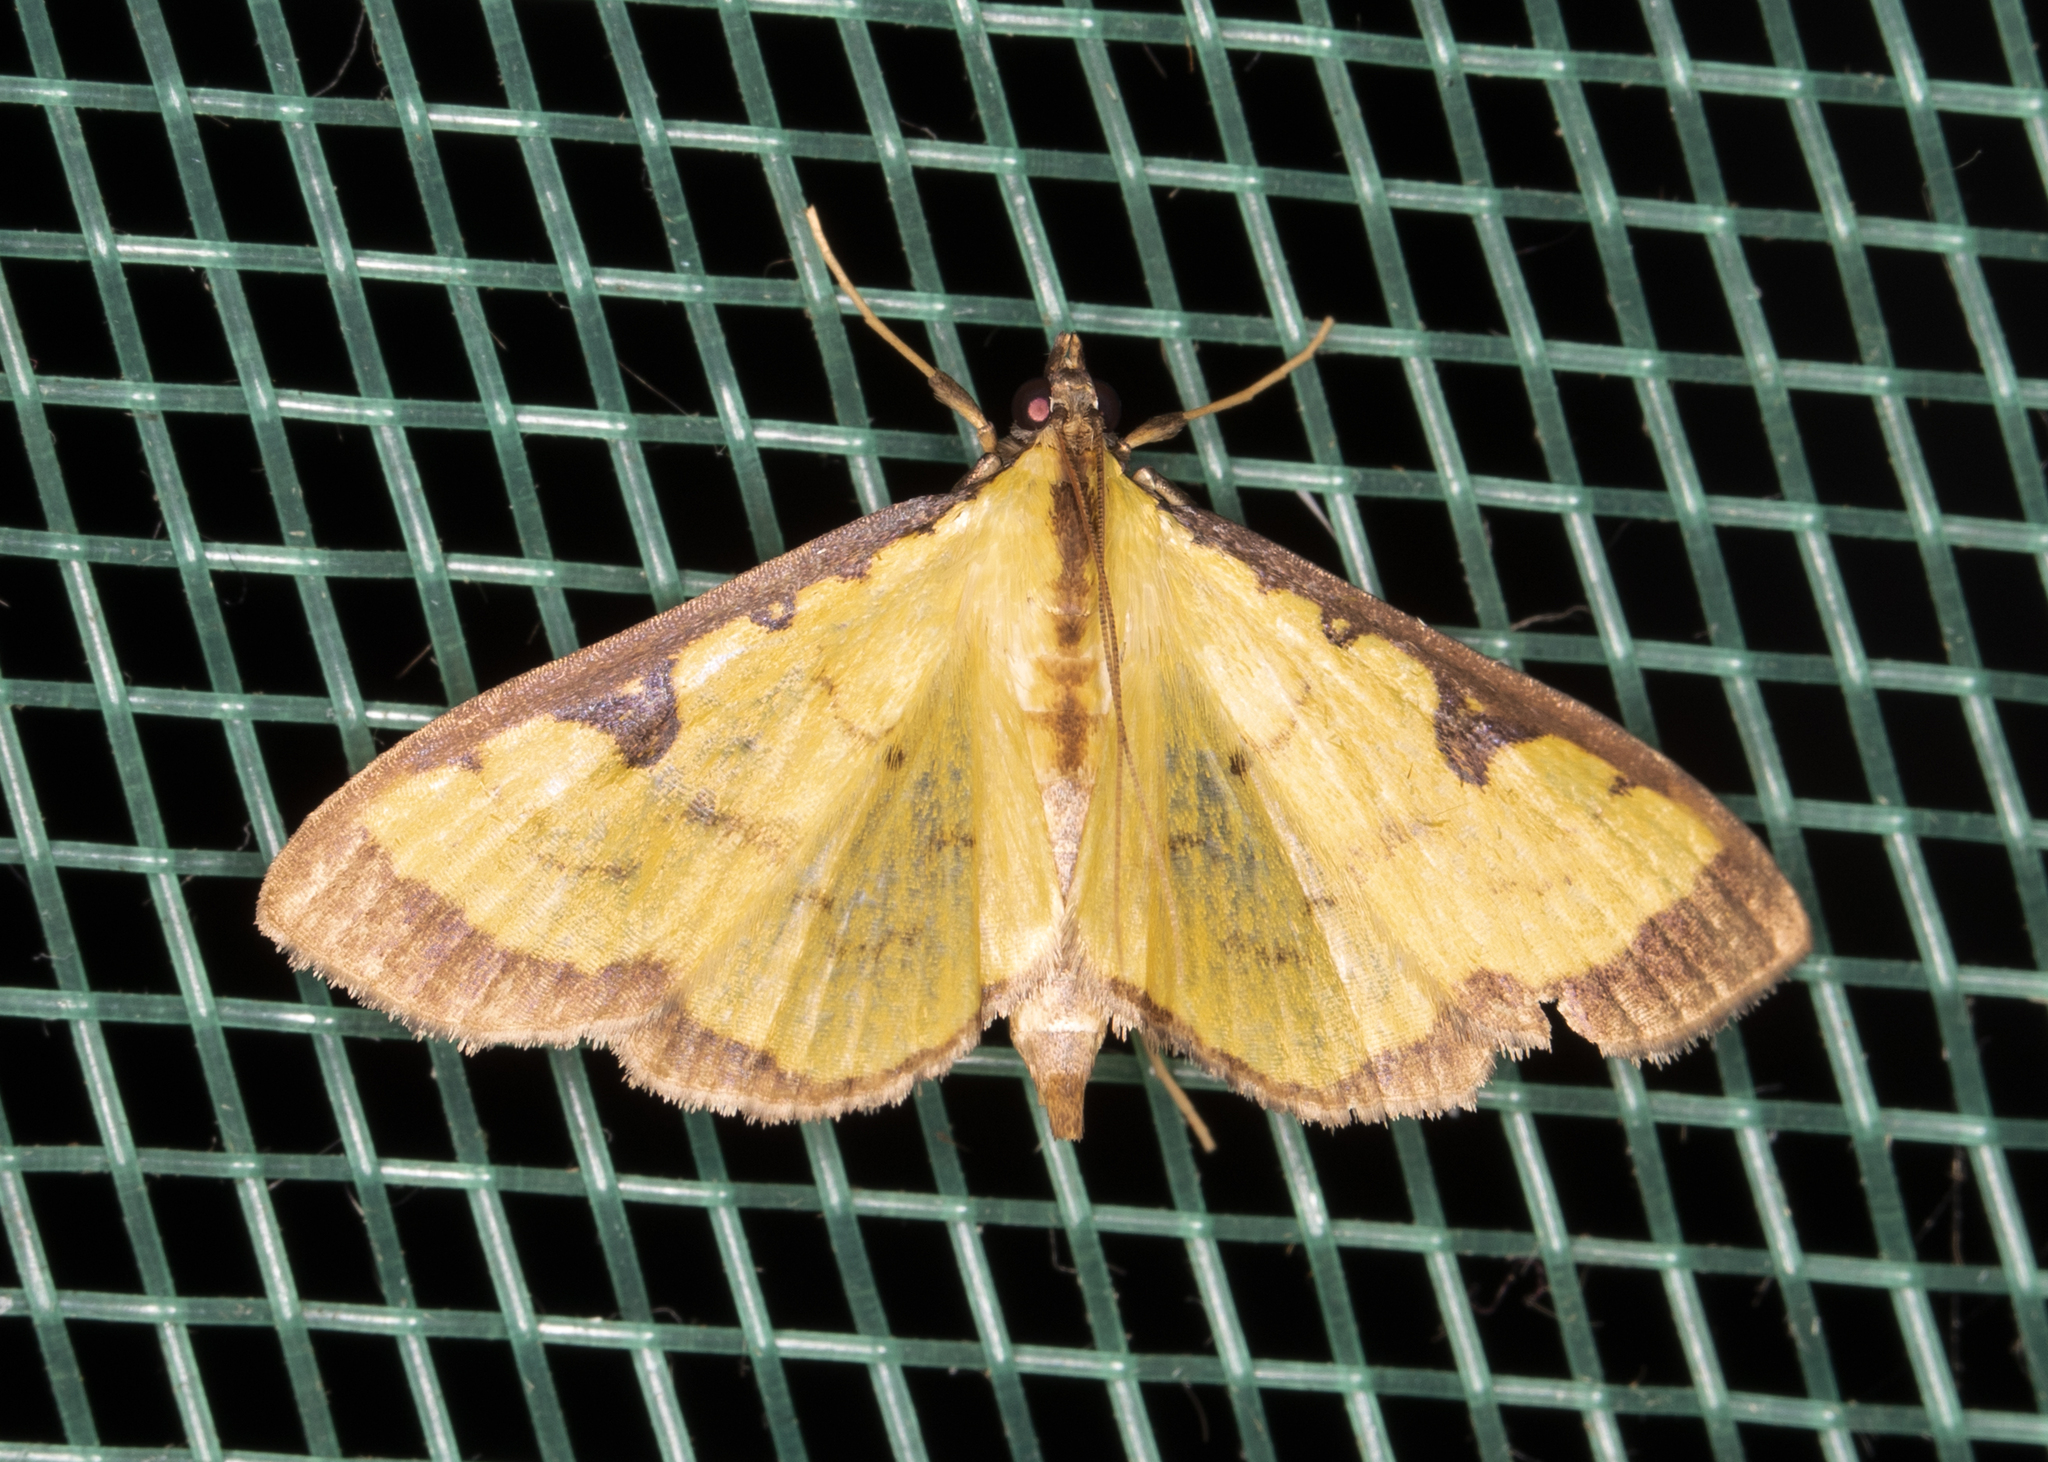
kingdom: Animalia
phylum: Arthropoda
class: Insecta
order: Lepidoptera
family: Crambidae
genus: Goniorhynchus
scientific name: Goniorhynchus
